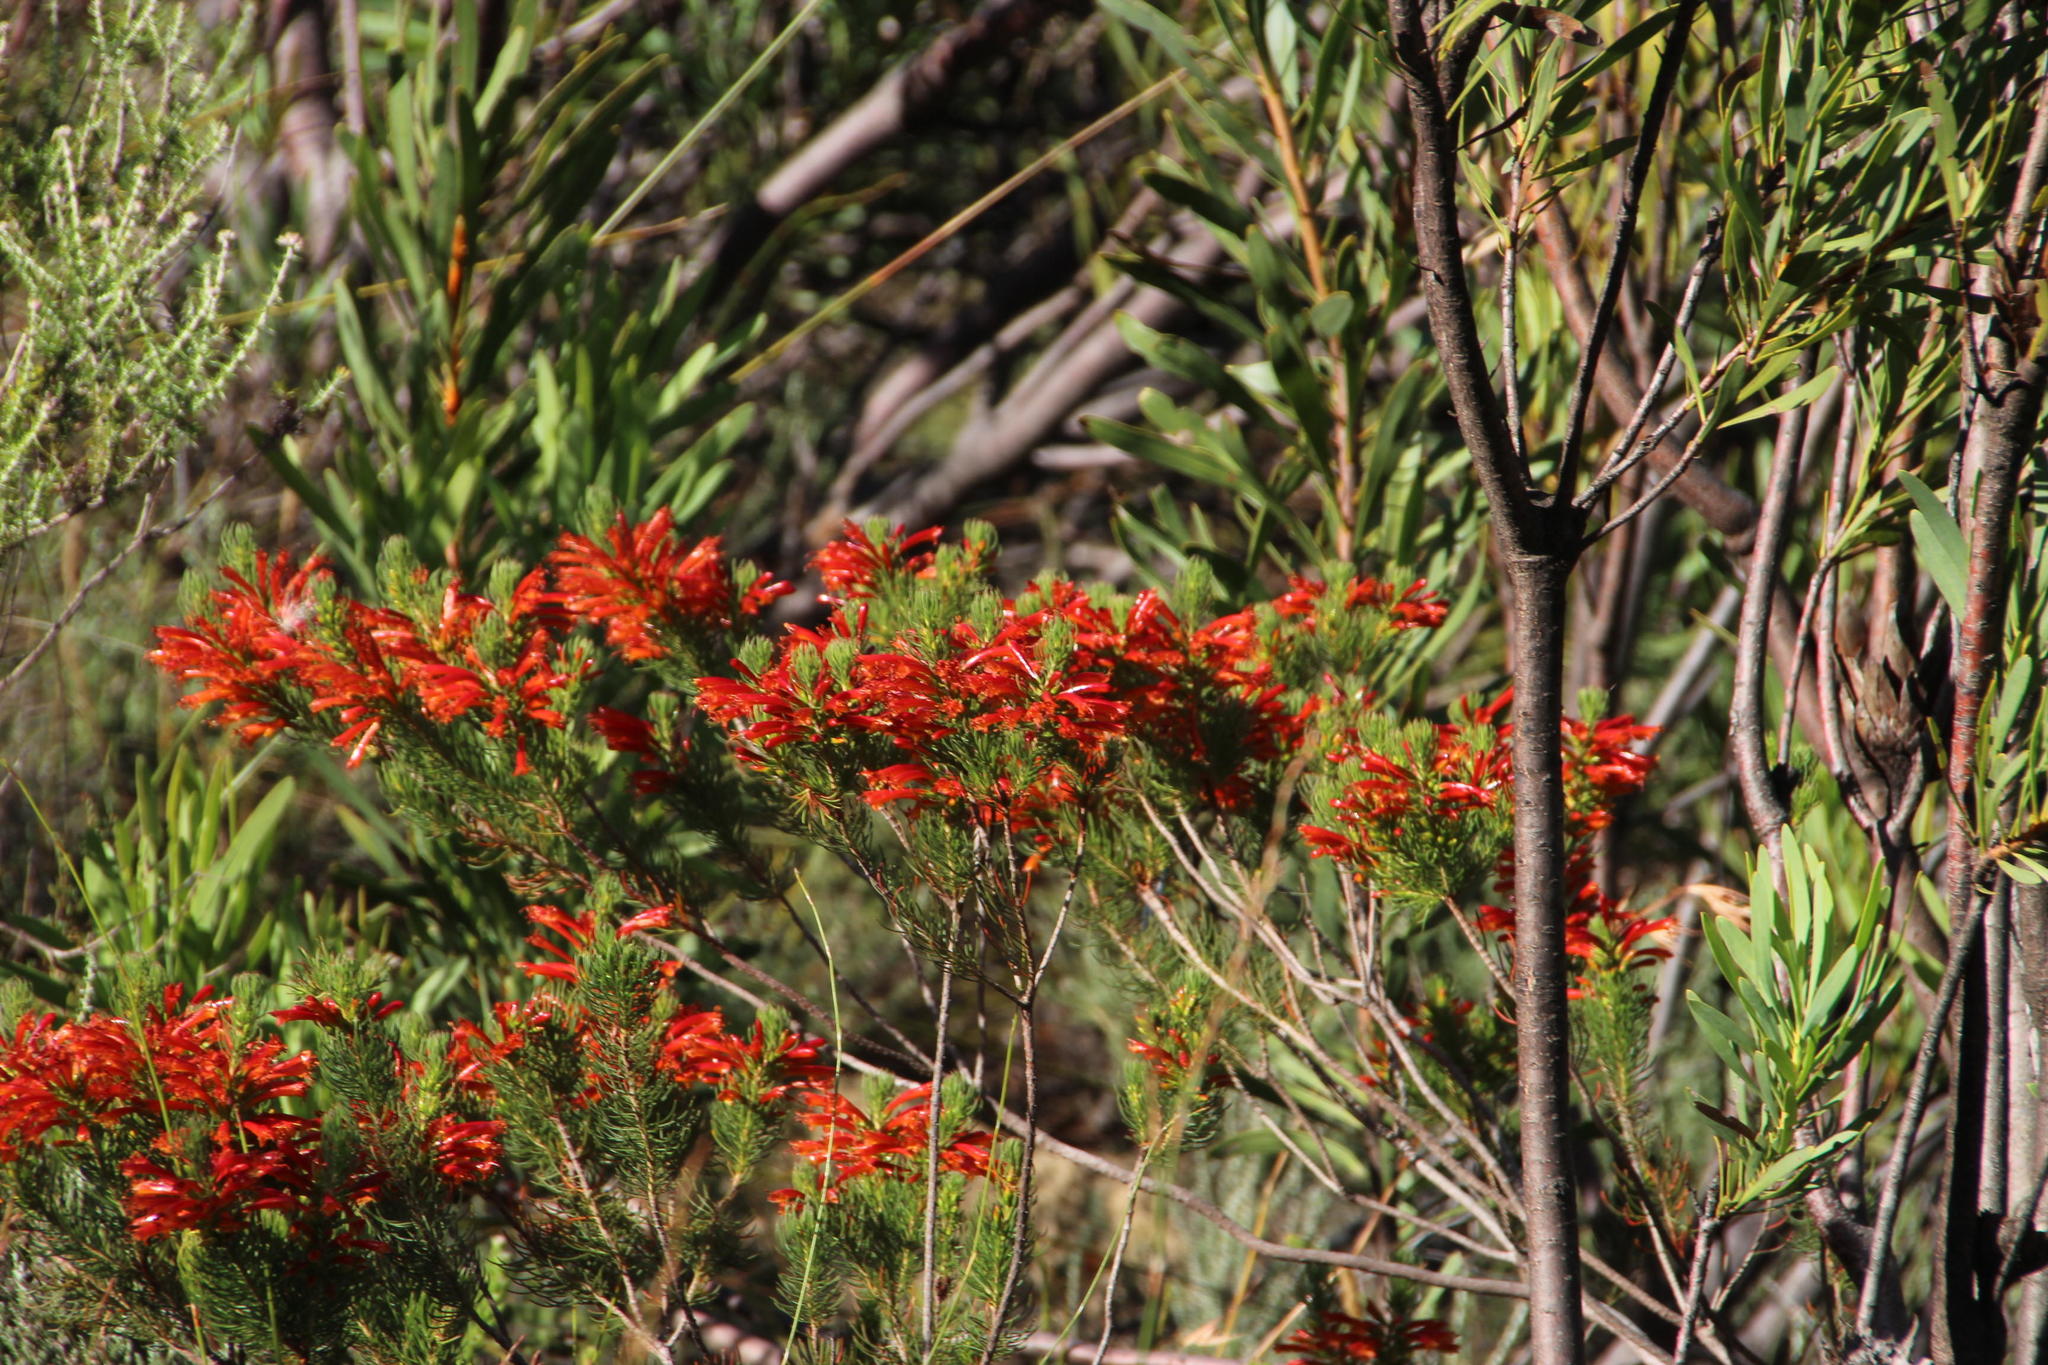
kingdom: Plantae
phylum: Tracheophyta
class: Magnoliopsida
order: Ericales
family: Ericaceae
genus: Erica
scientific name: Erica grandiflora
